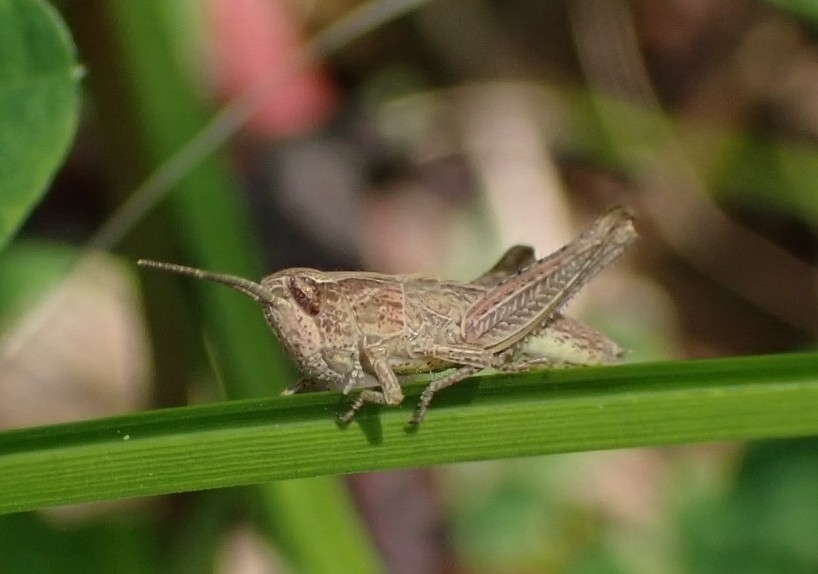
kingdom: Animalia
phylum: Arthropoda
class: Insecta
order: Orthoptera
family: Acrididae
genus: Chorthippus
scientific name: Chorthippus dorsatus
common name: Steppe grasshopper
